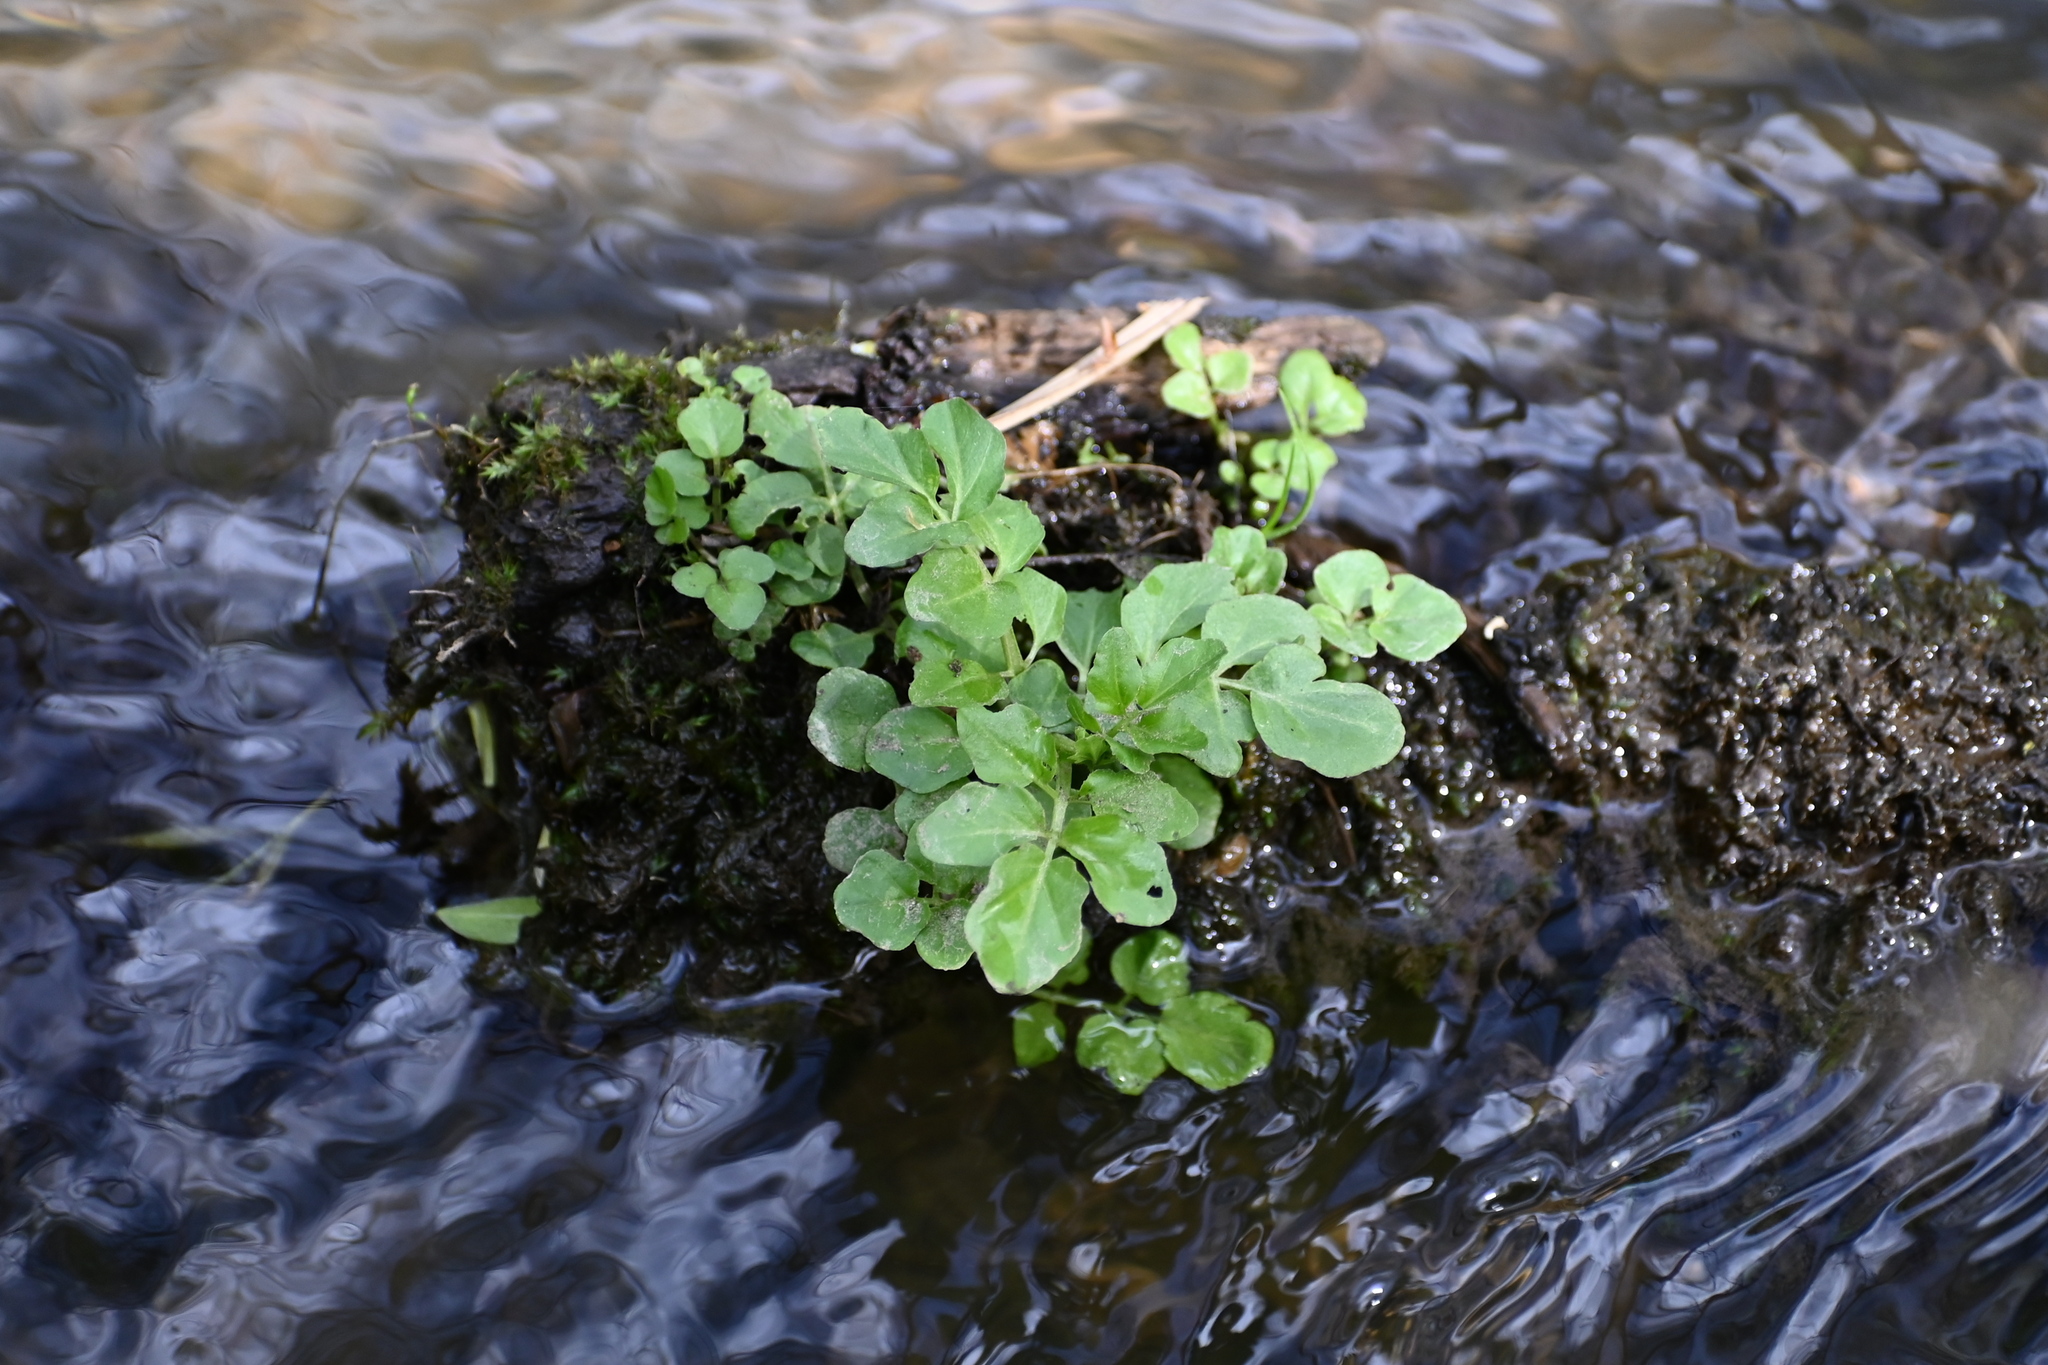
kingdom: Plantae
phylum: Tracheophyta
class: Magnoliopsida
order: Brassicales
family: Brassicaceae
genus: Cardamine
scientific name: Cardamine amara
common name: Large bitter-cress
